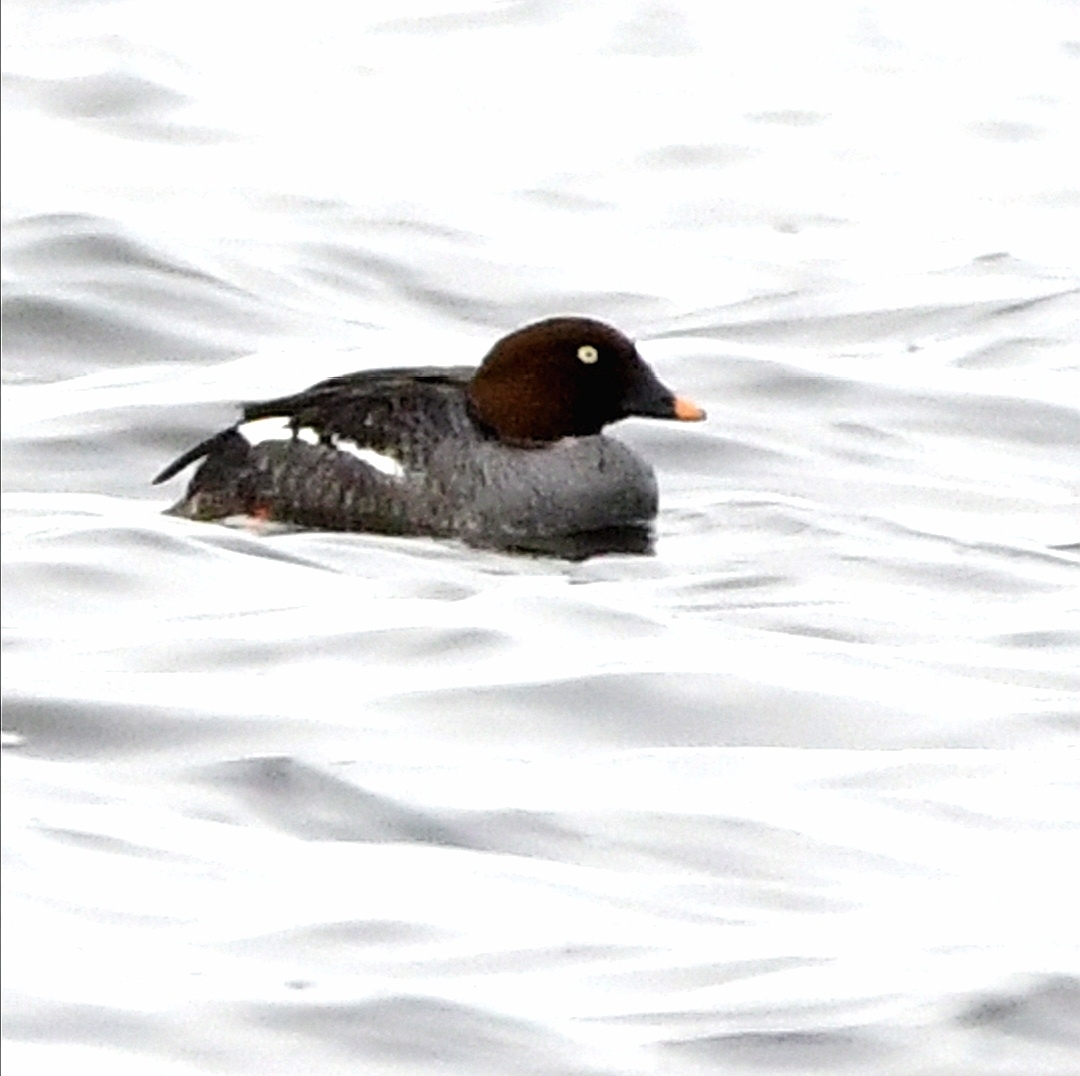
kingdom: Animalia
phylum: Chordata
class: Aves
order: Anseriformes
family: Anatidae
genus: Bucephala
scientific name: Bucephala clangula
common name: Common goldeneye
